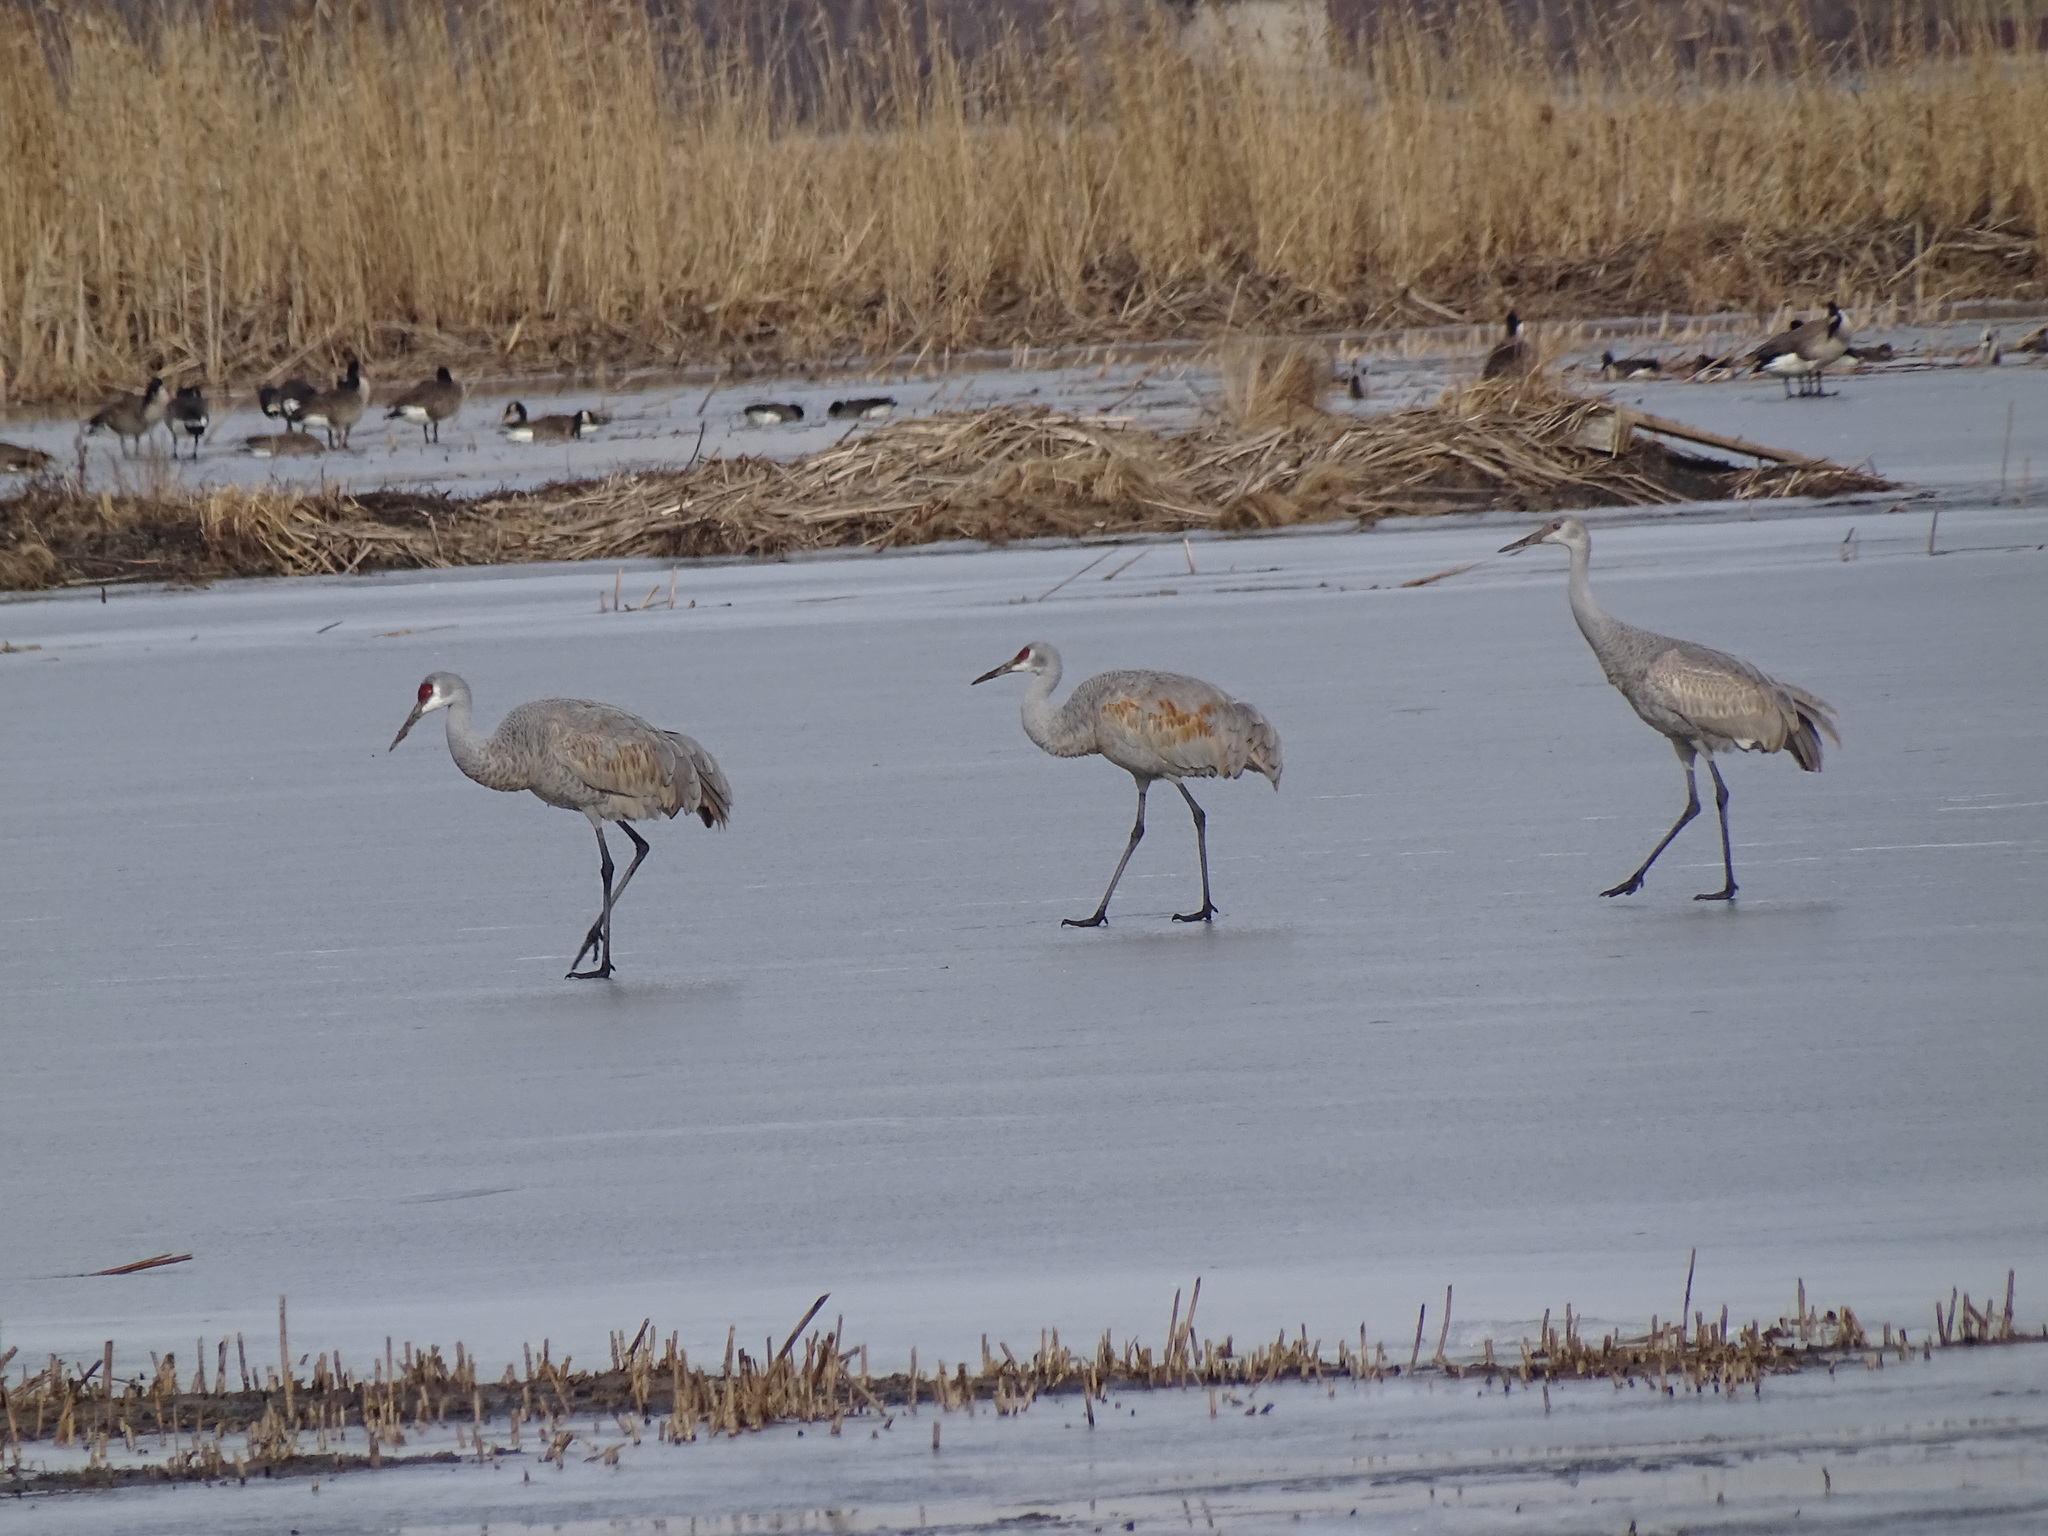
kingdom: Animalia
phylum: Chordata
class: Aves
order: Gruiformes
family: Gruidae
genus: Grus
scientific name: Grus canadensis
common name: Sandhill crane
